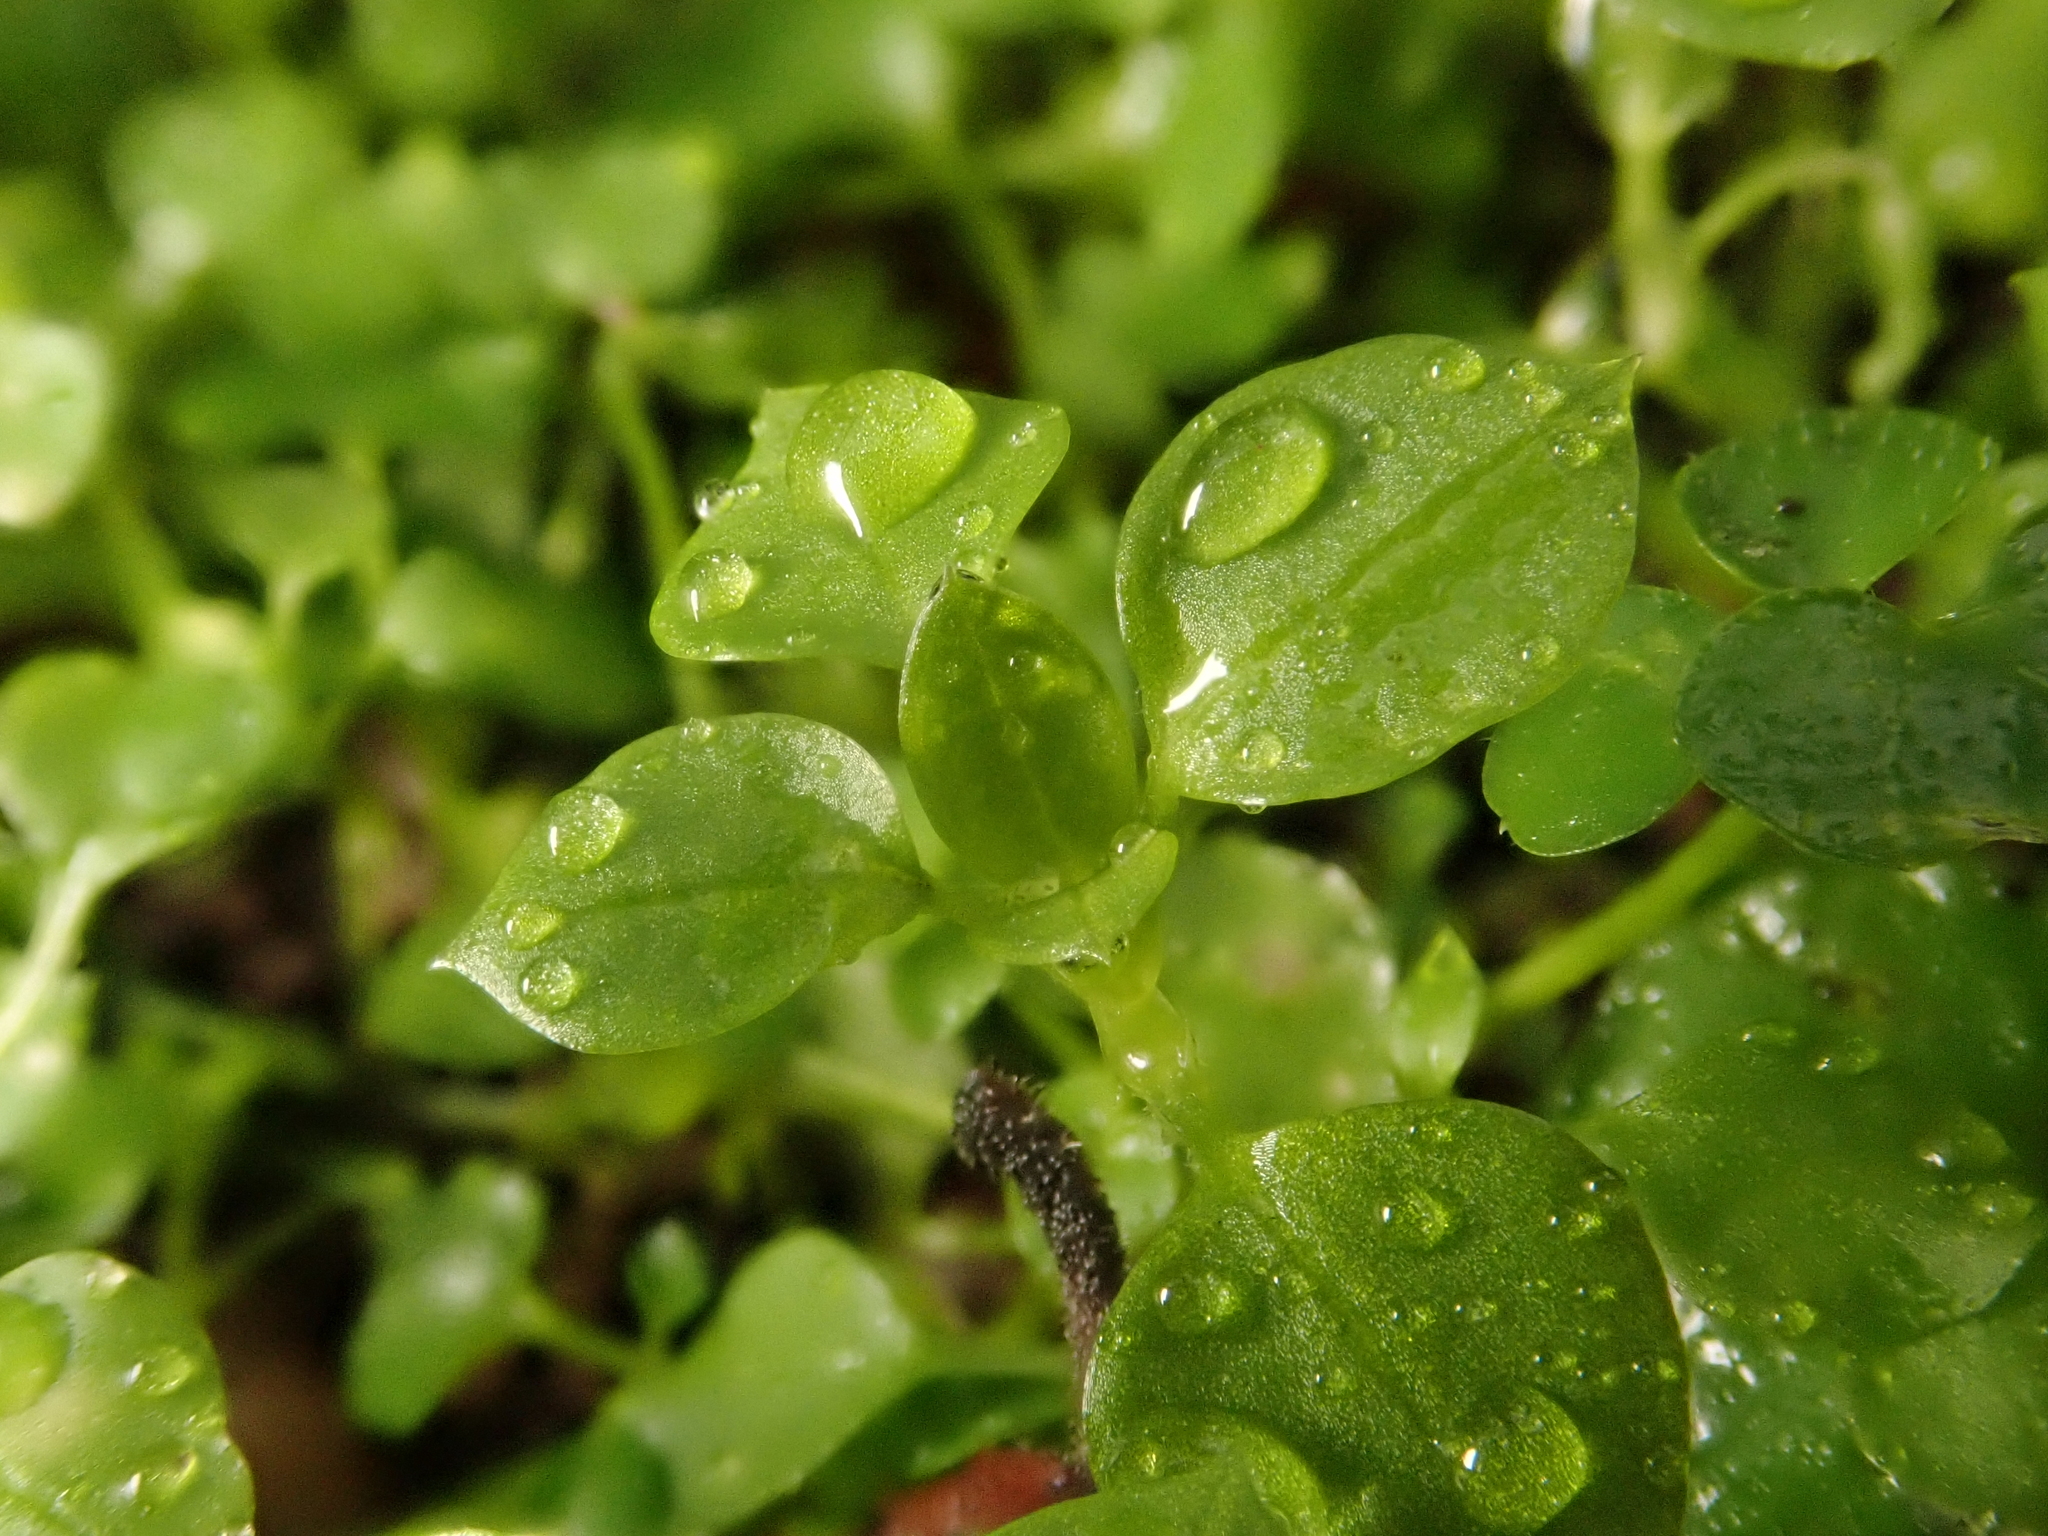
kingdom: Plantae
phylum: Tracheophyta
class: Magnoliopsida
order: Caryophyllales
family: Caryophyllaceae
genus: Stellaria
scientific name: Stellaria media
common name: Common chickweed
